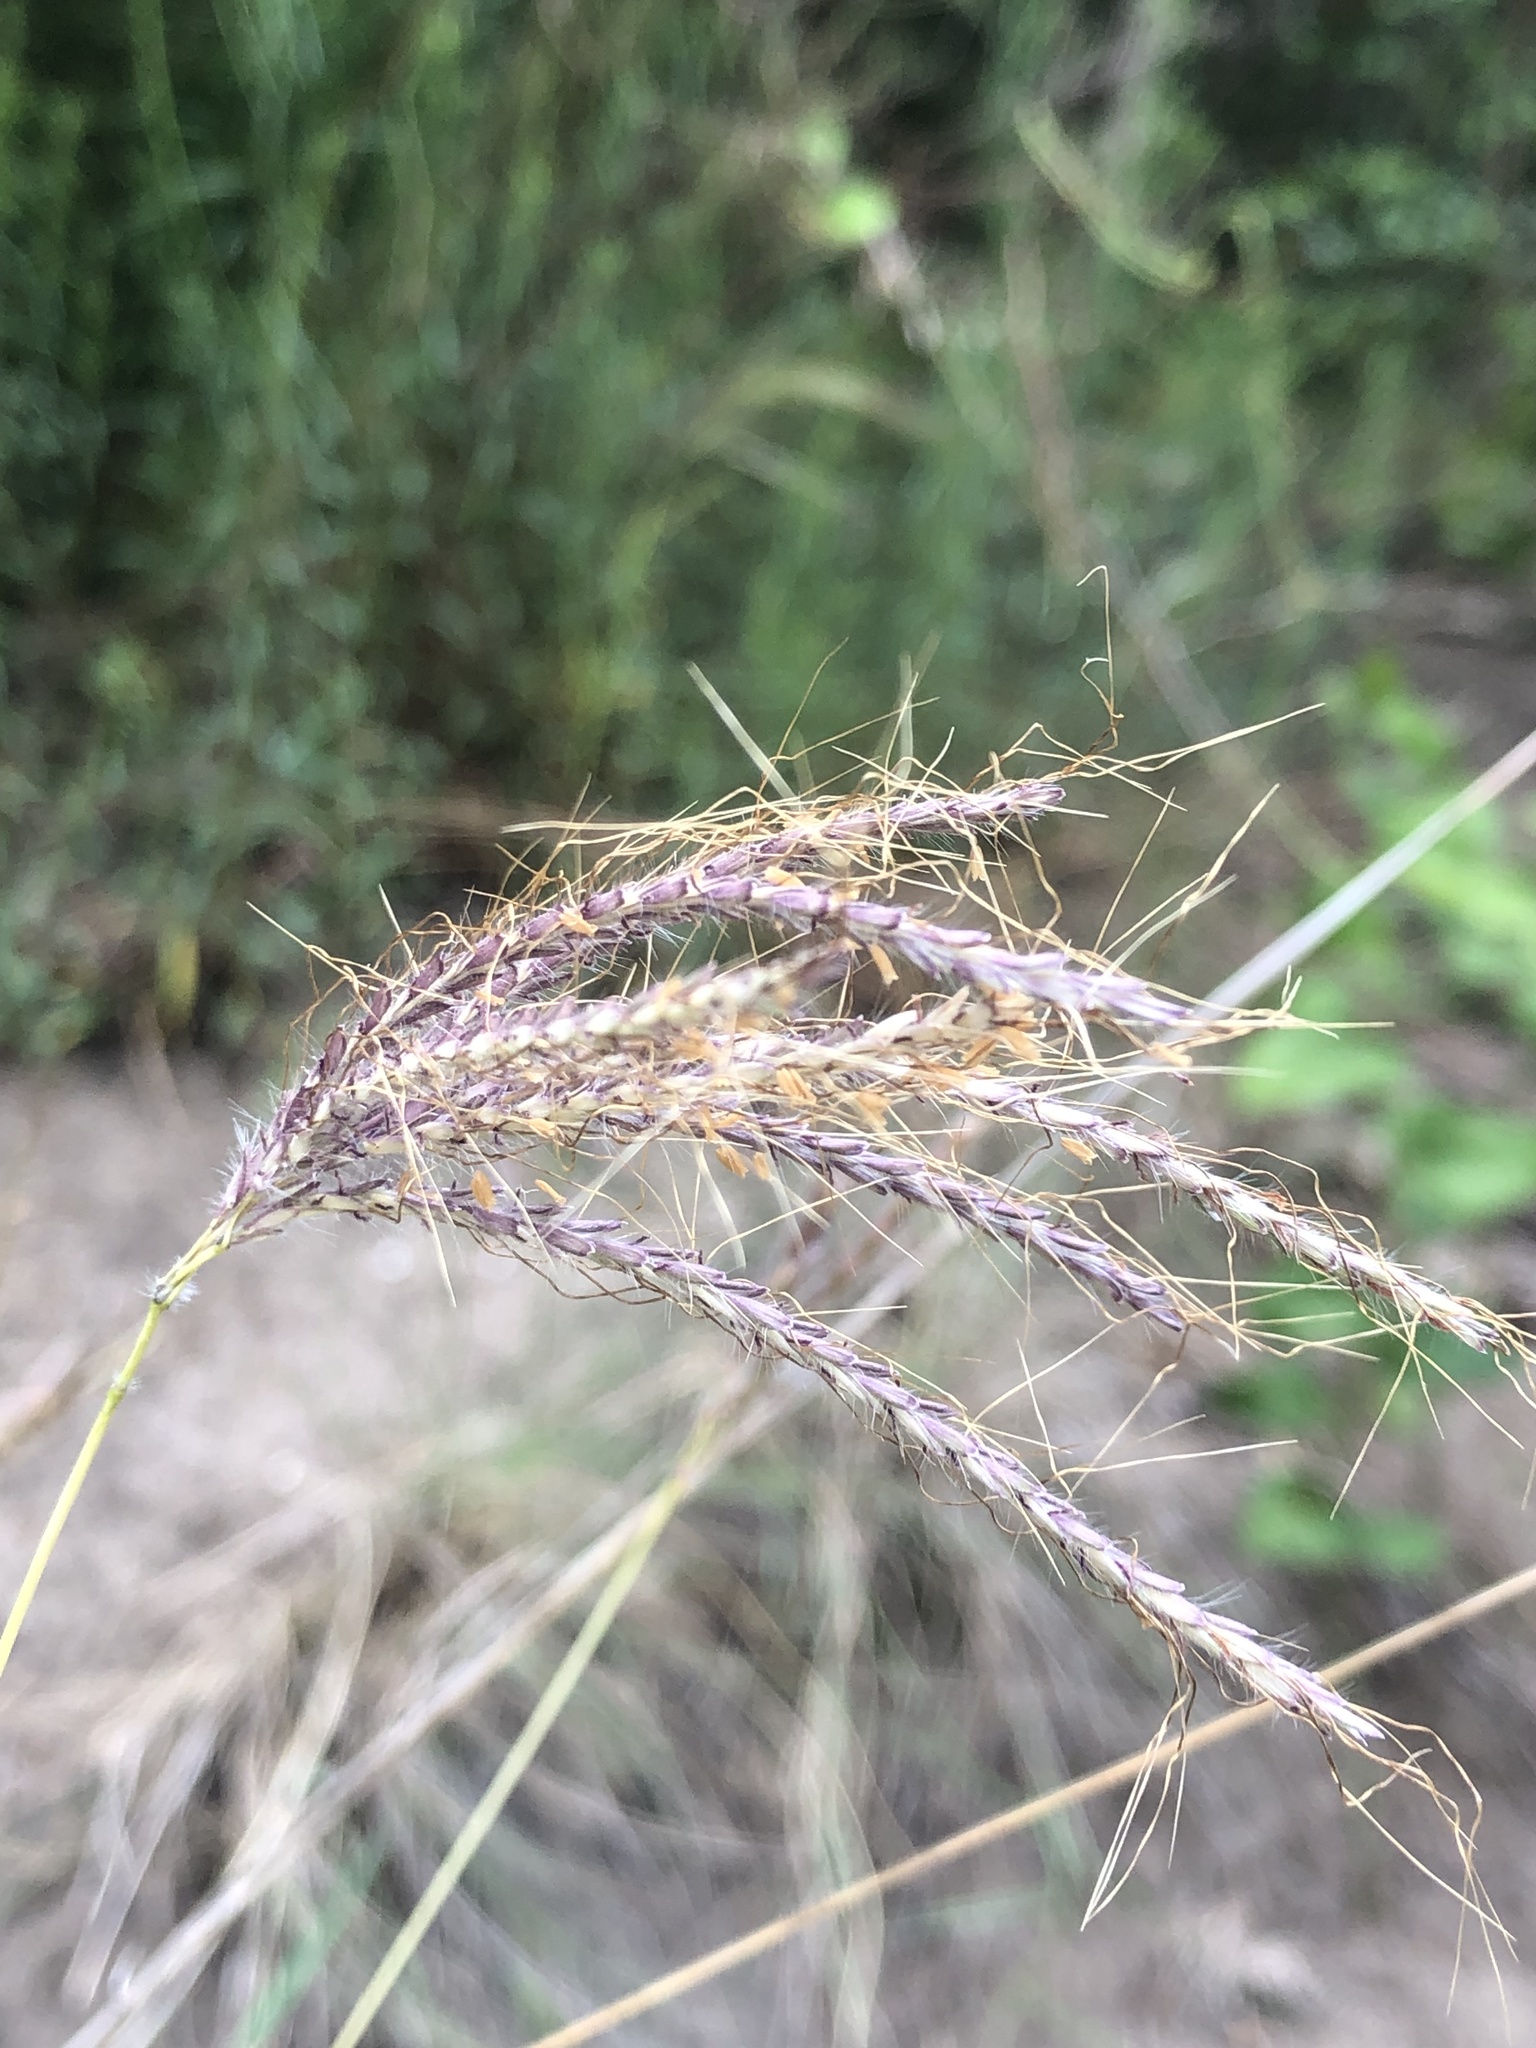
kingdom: Plantae
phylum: Tracheophyta
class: Liliopsida
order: Poales
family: Poaceae
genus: Dichanthium
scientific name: Dichanthium annulatum
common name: Kleberg's bluestem
